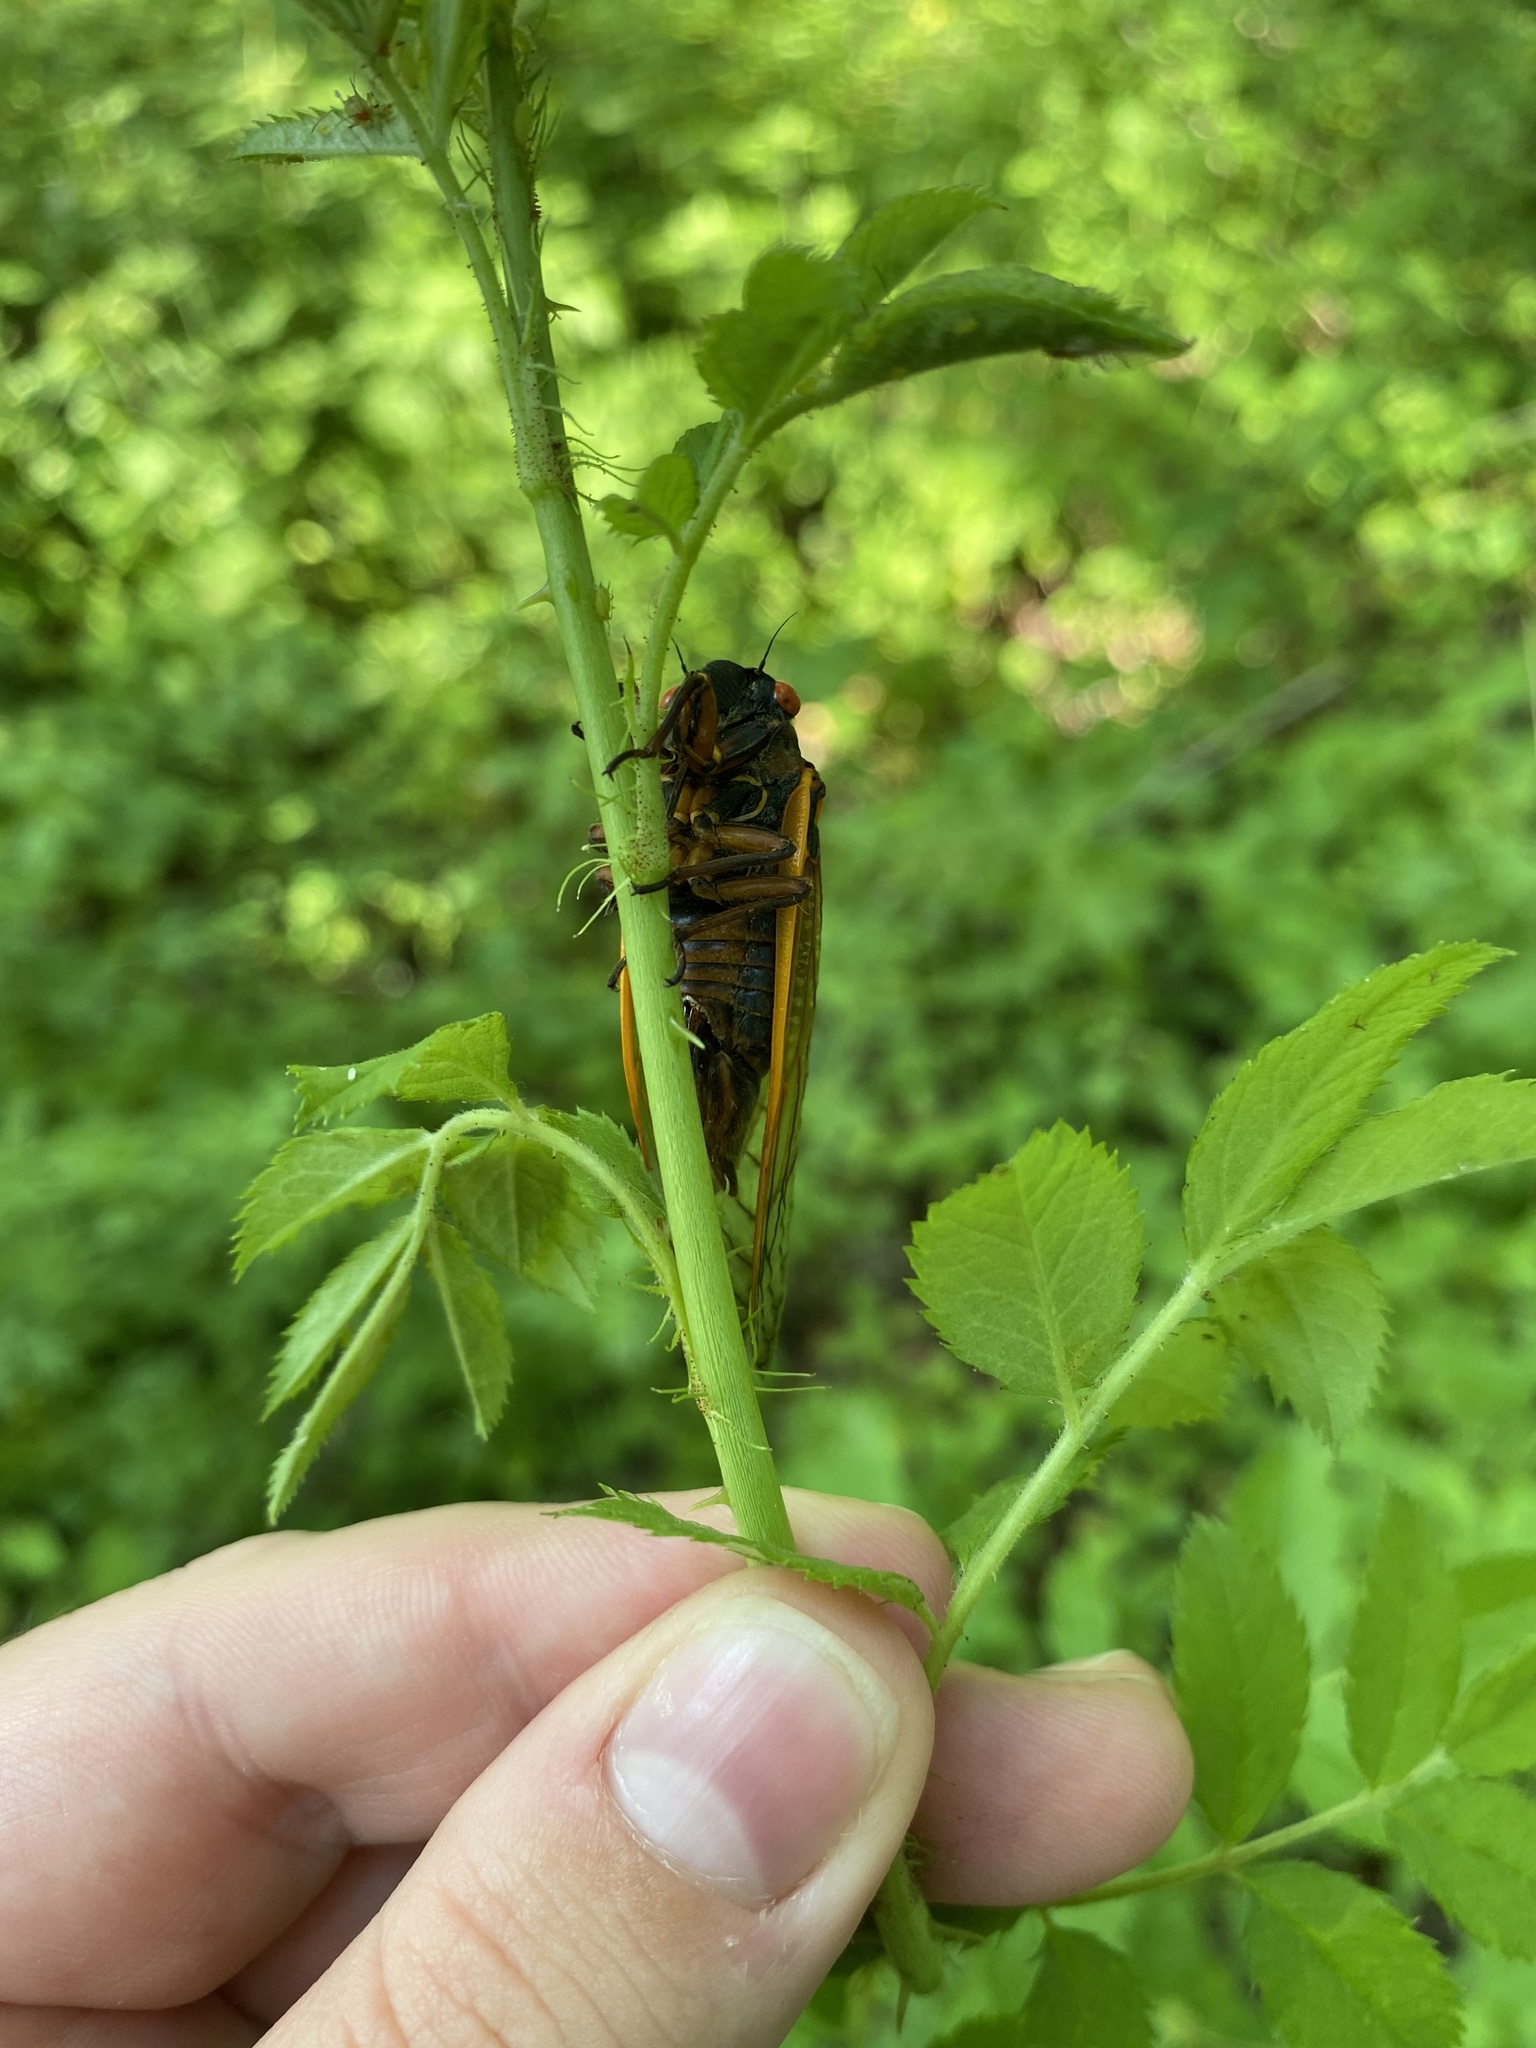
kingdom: Animalia
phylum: Arthropoda
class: Insecta
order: Hemiptera
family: Cicadidae
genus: Magicicada
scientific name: Magicicada septendecim
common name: Periodical cicada
